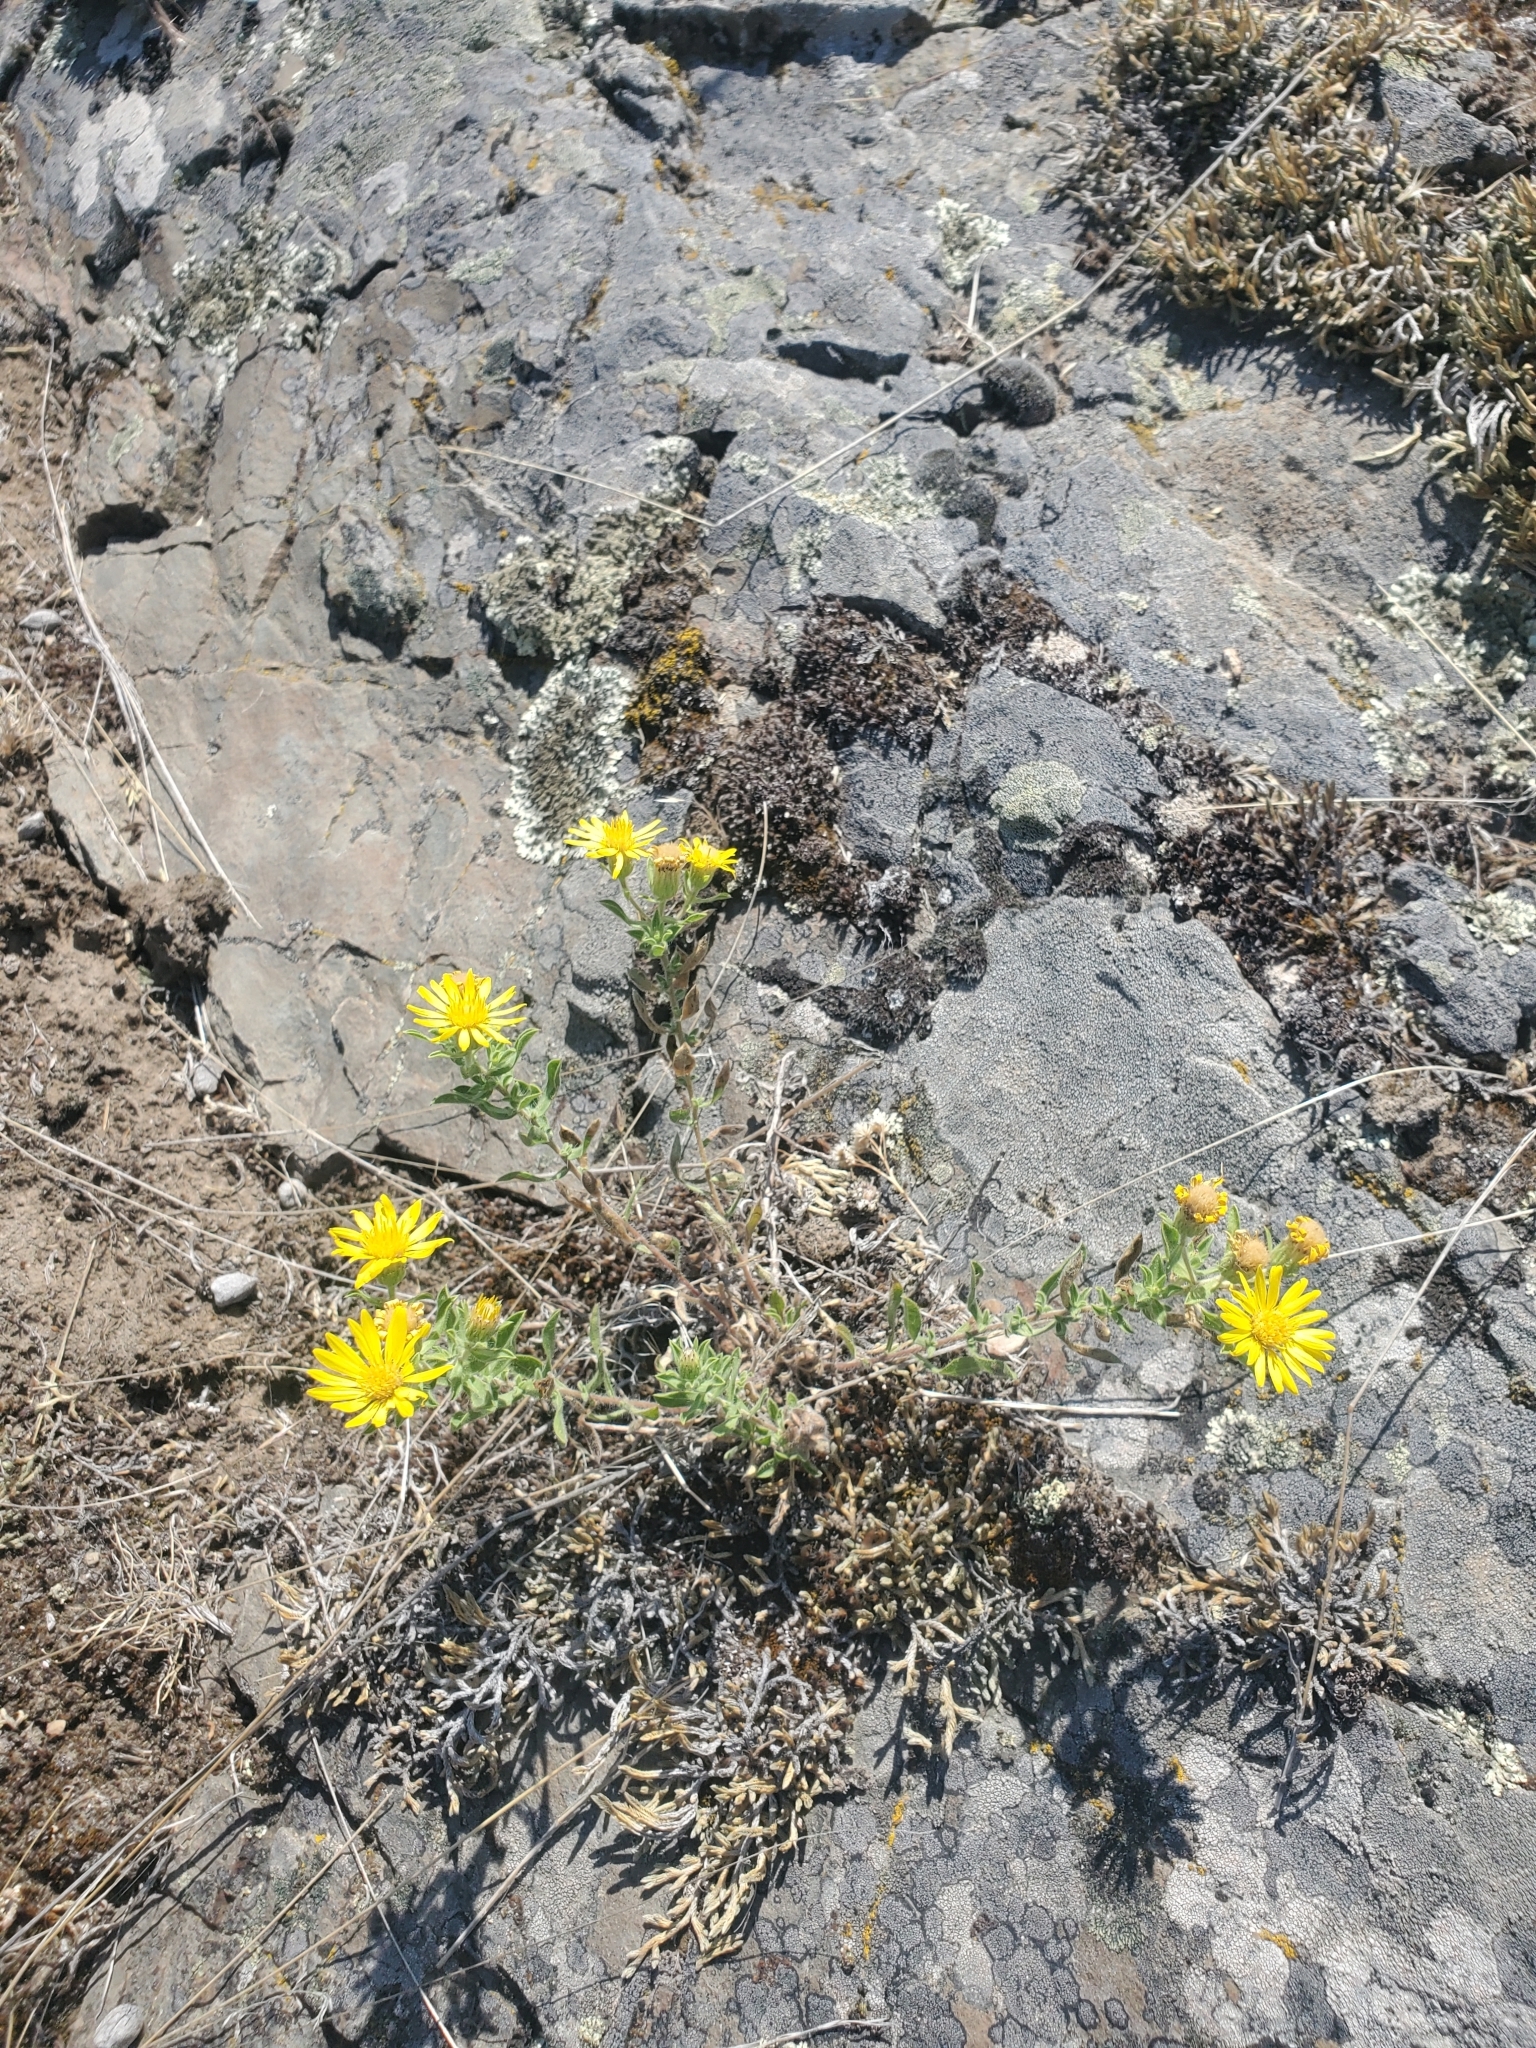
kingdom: Plantae
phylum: Tracheophyta
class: Magnoliopsida
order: Asterales
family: Asteraceae
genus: Heterotheca
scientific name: Heterotheca villosa
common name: Hairy false goldenaster
